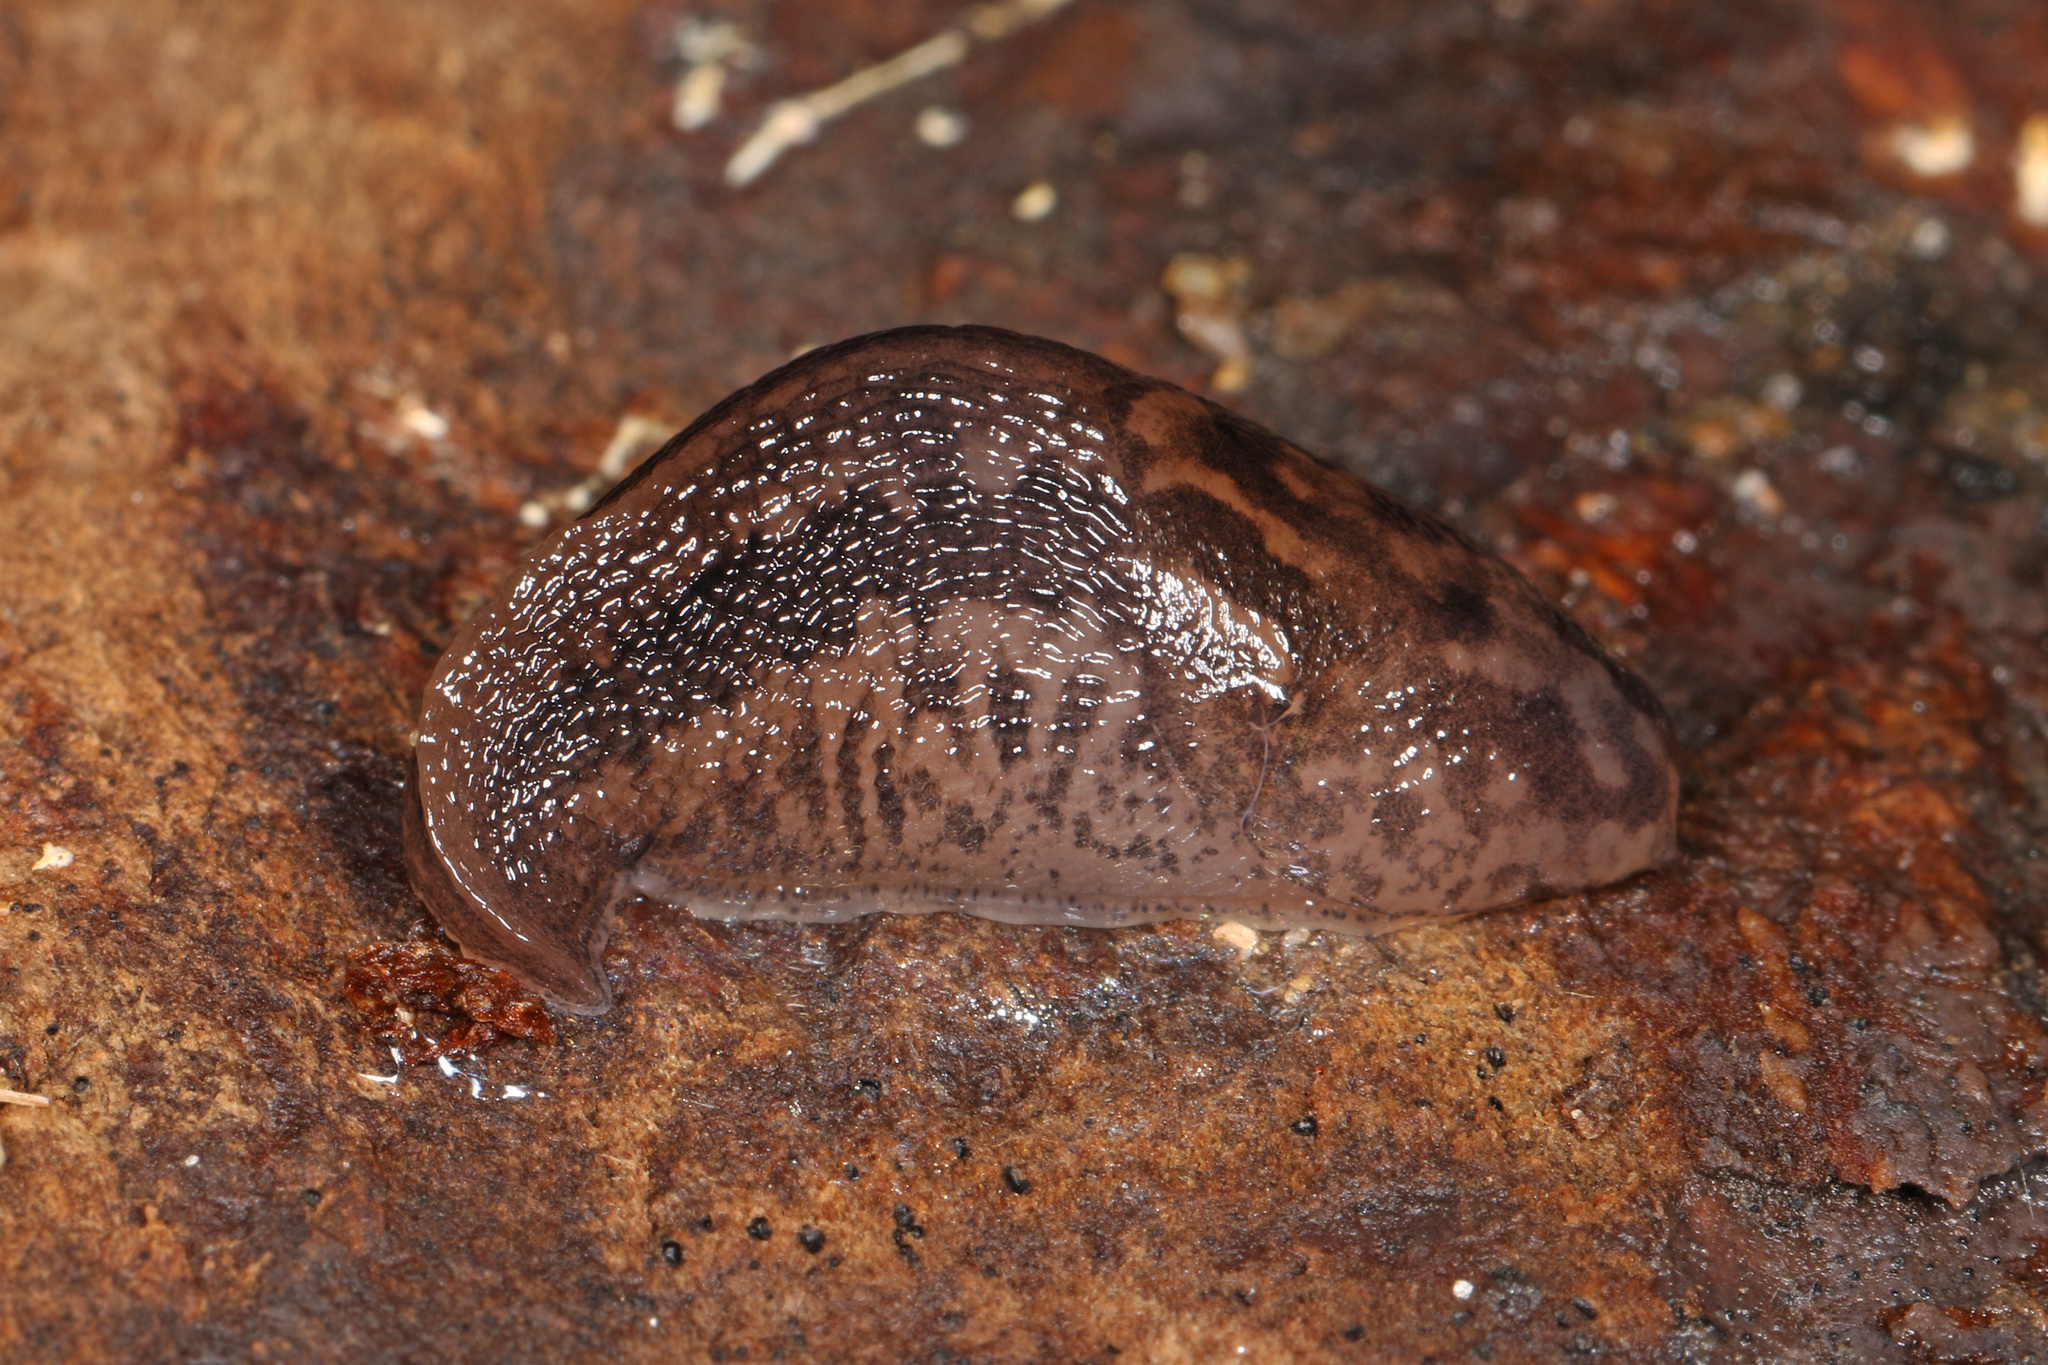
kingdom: Animalia
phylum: Mollusca
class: Gastropoda
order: Stylommatophora
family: Limacidae
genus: Limax
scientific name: Limax maximus
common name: Great grey slug
